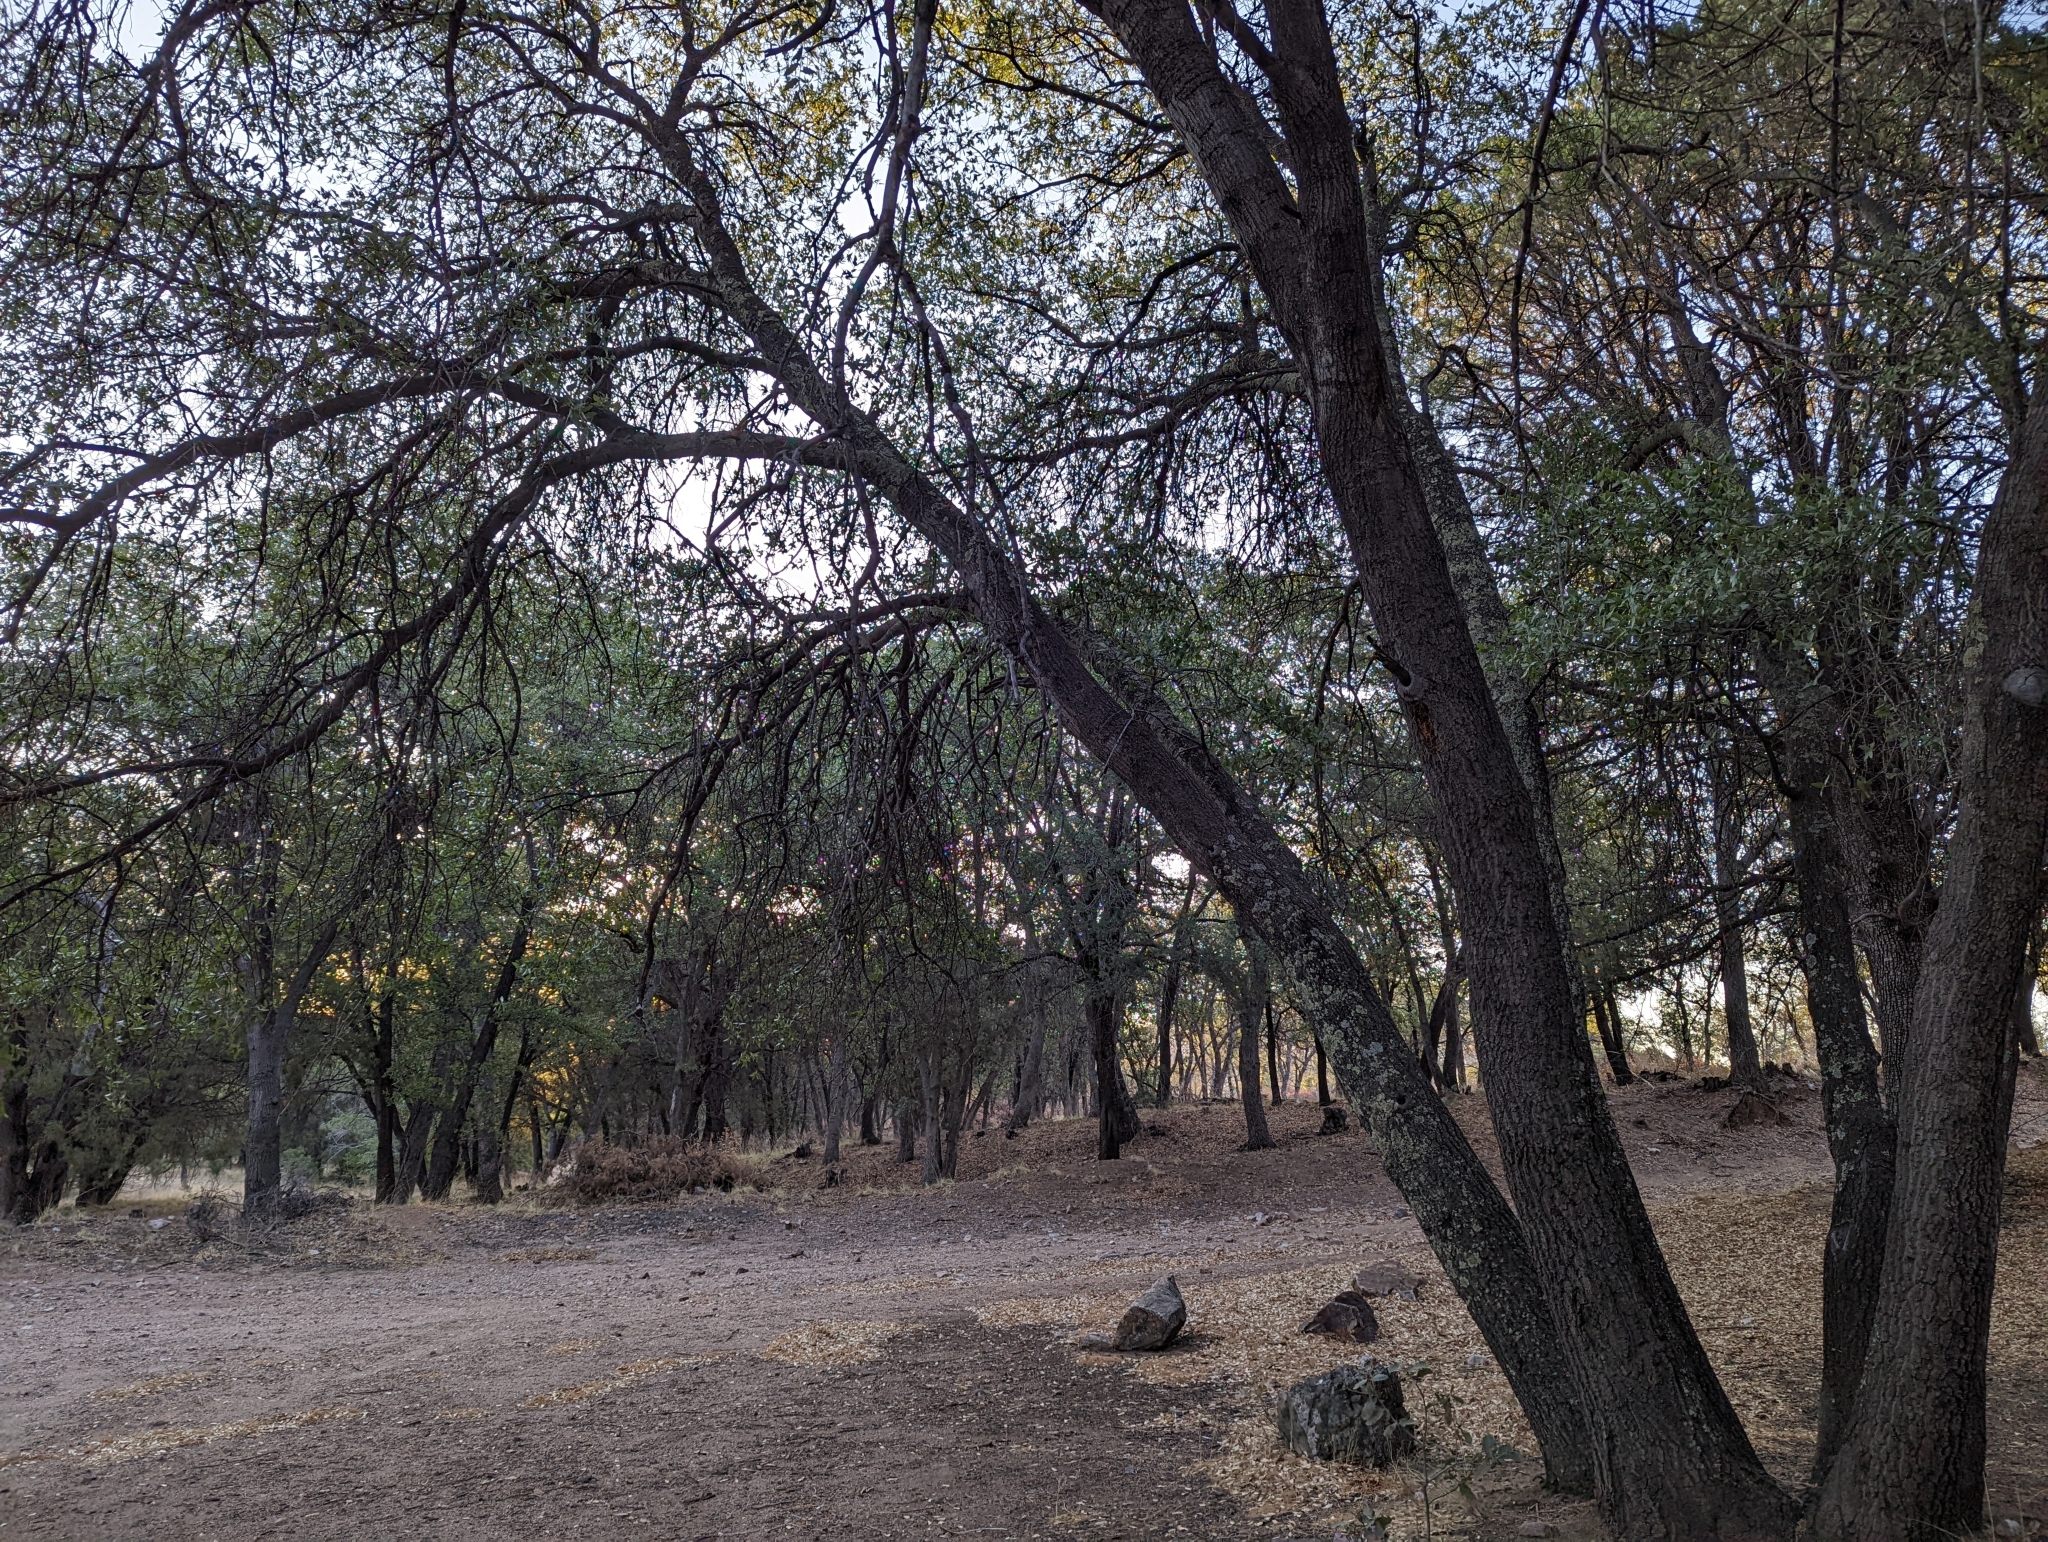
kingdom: Plantae
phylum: Tracheophyta
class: Magnoliopsida
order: Fagales
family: Fagaceae
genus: Quercus
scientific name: Quercus emoryi
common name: Emory oak
